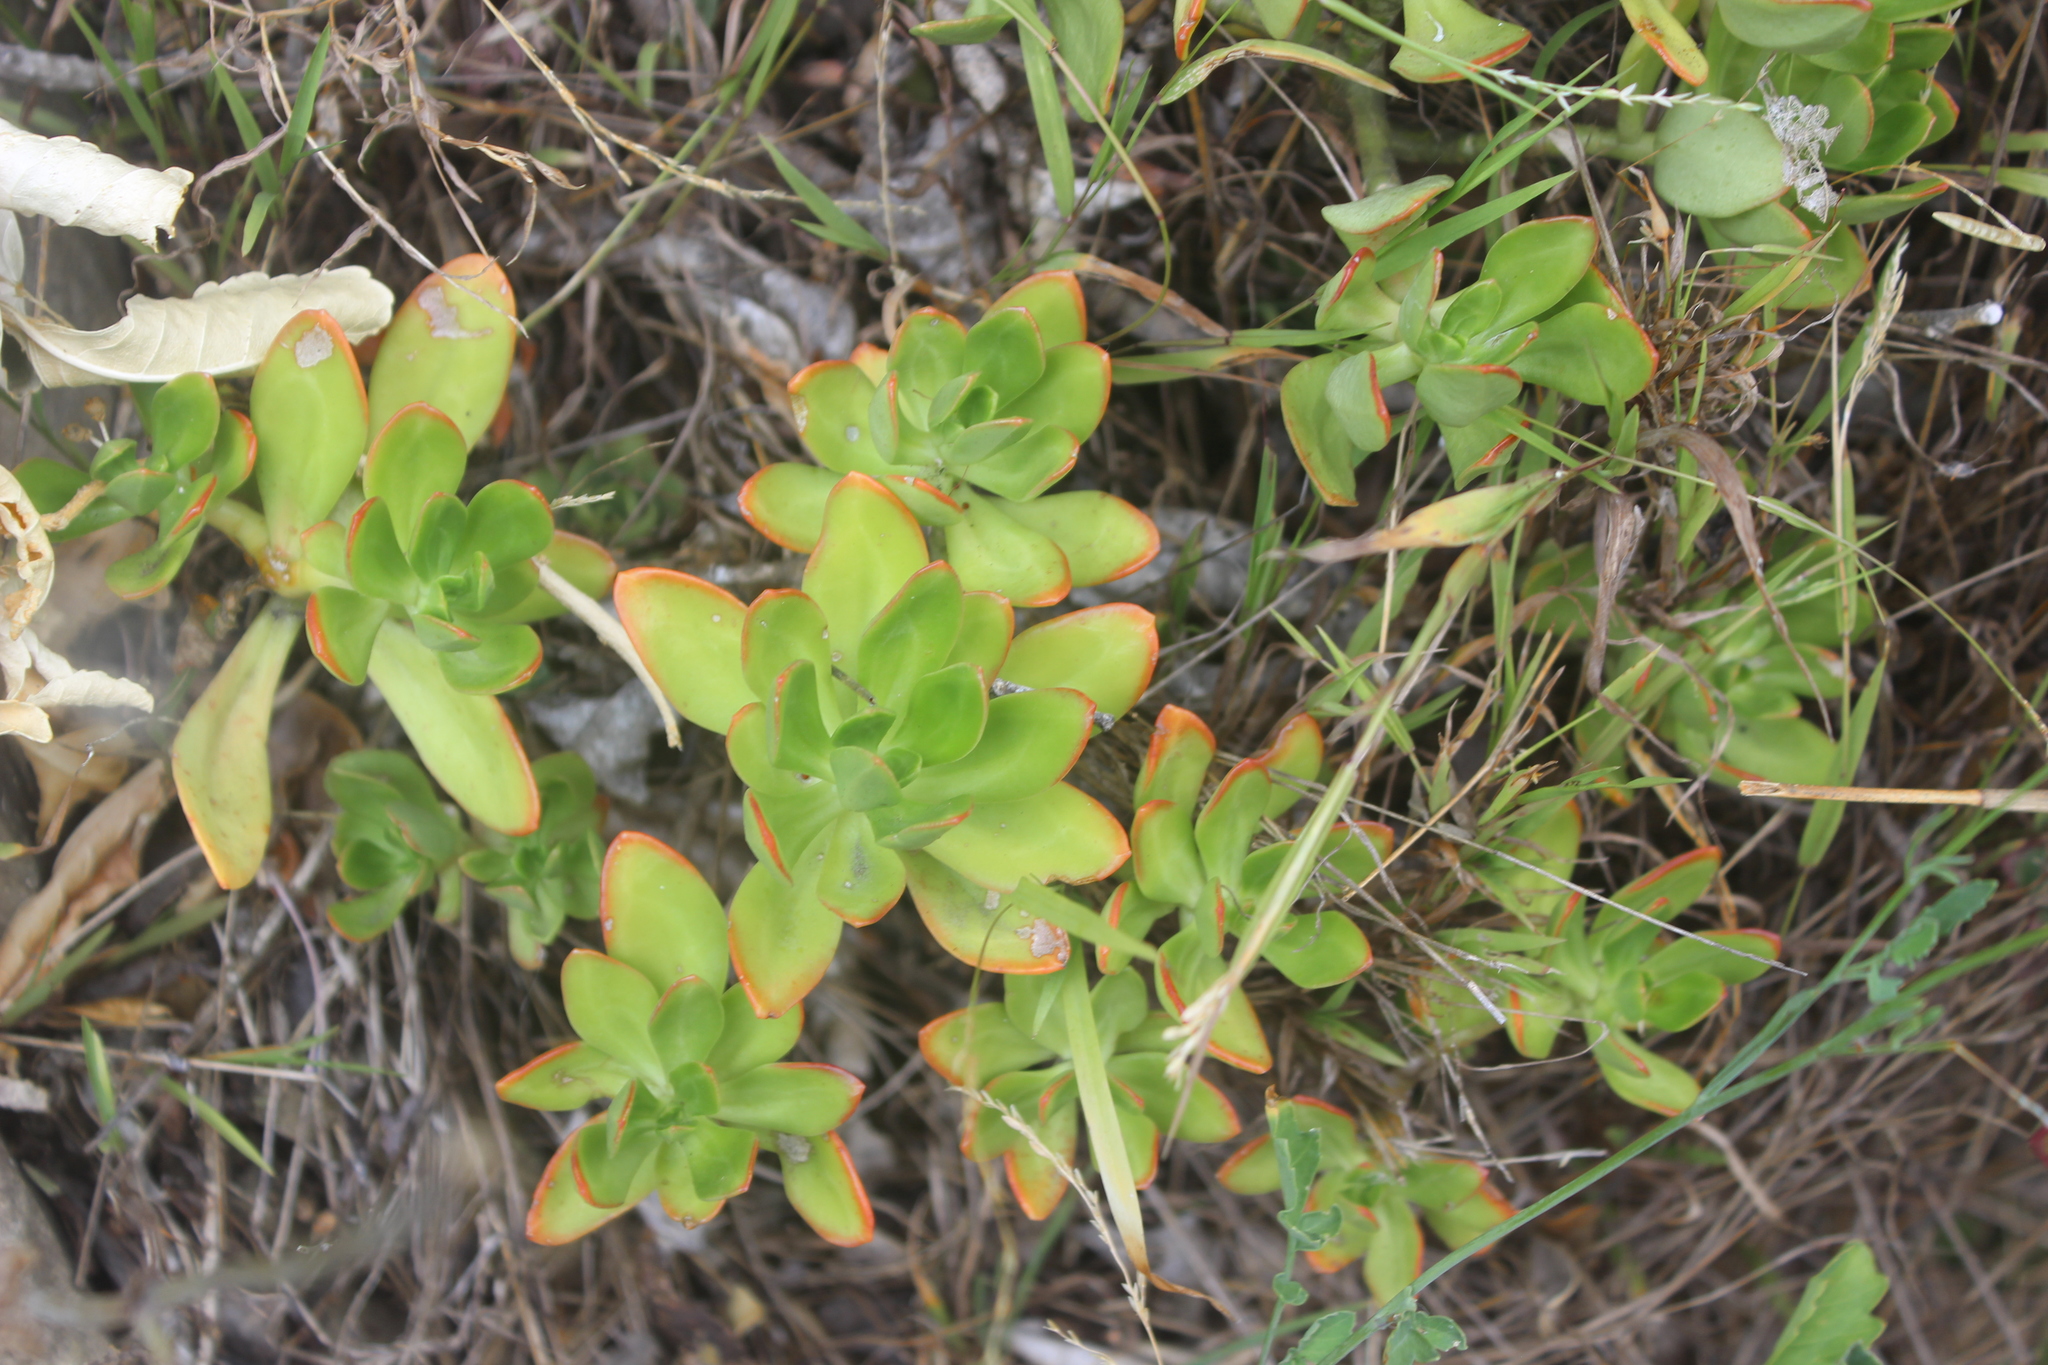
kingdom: Plantae
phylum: Tracheophyta
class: Magnoliopsida
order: Saxifragales
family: Crassulaceae
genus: Sedum
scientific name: Sedum praealtum
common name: Greater mexican-stonecrop
